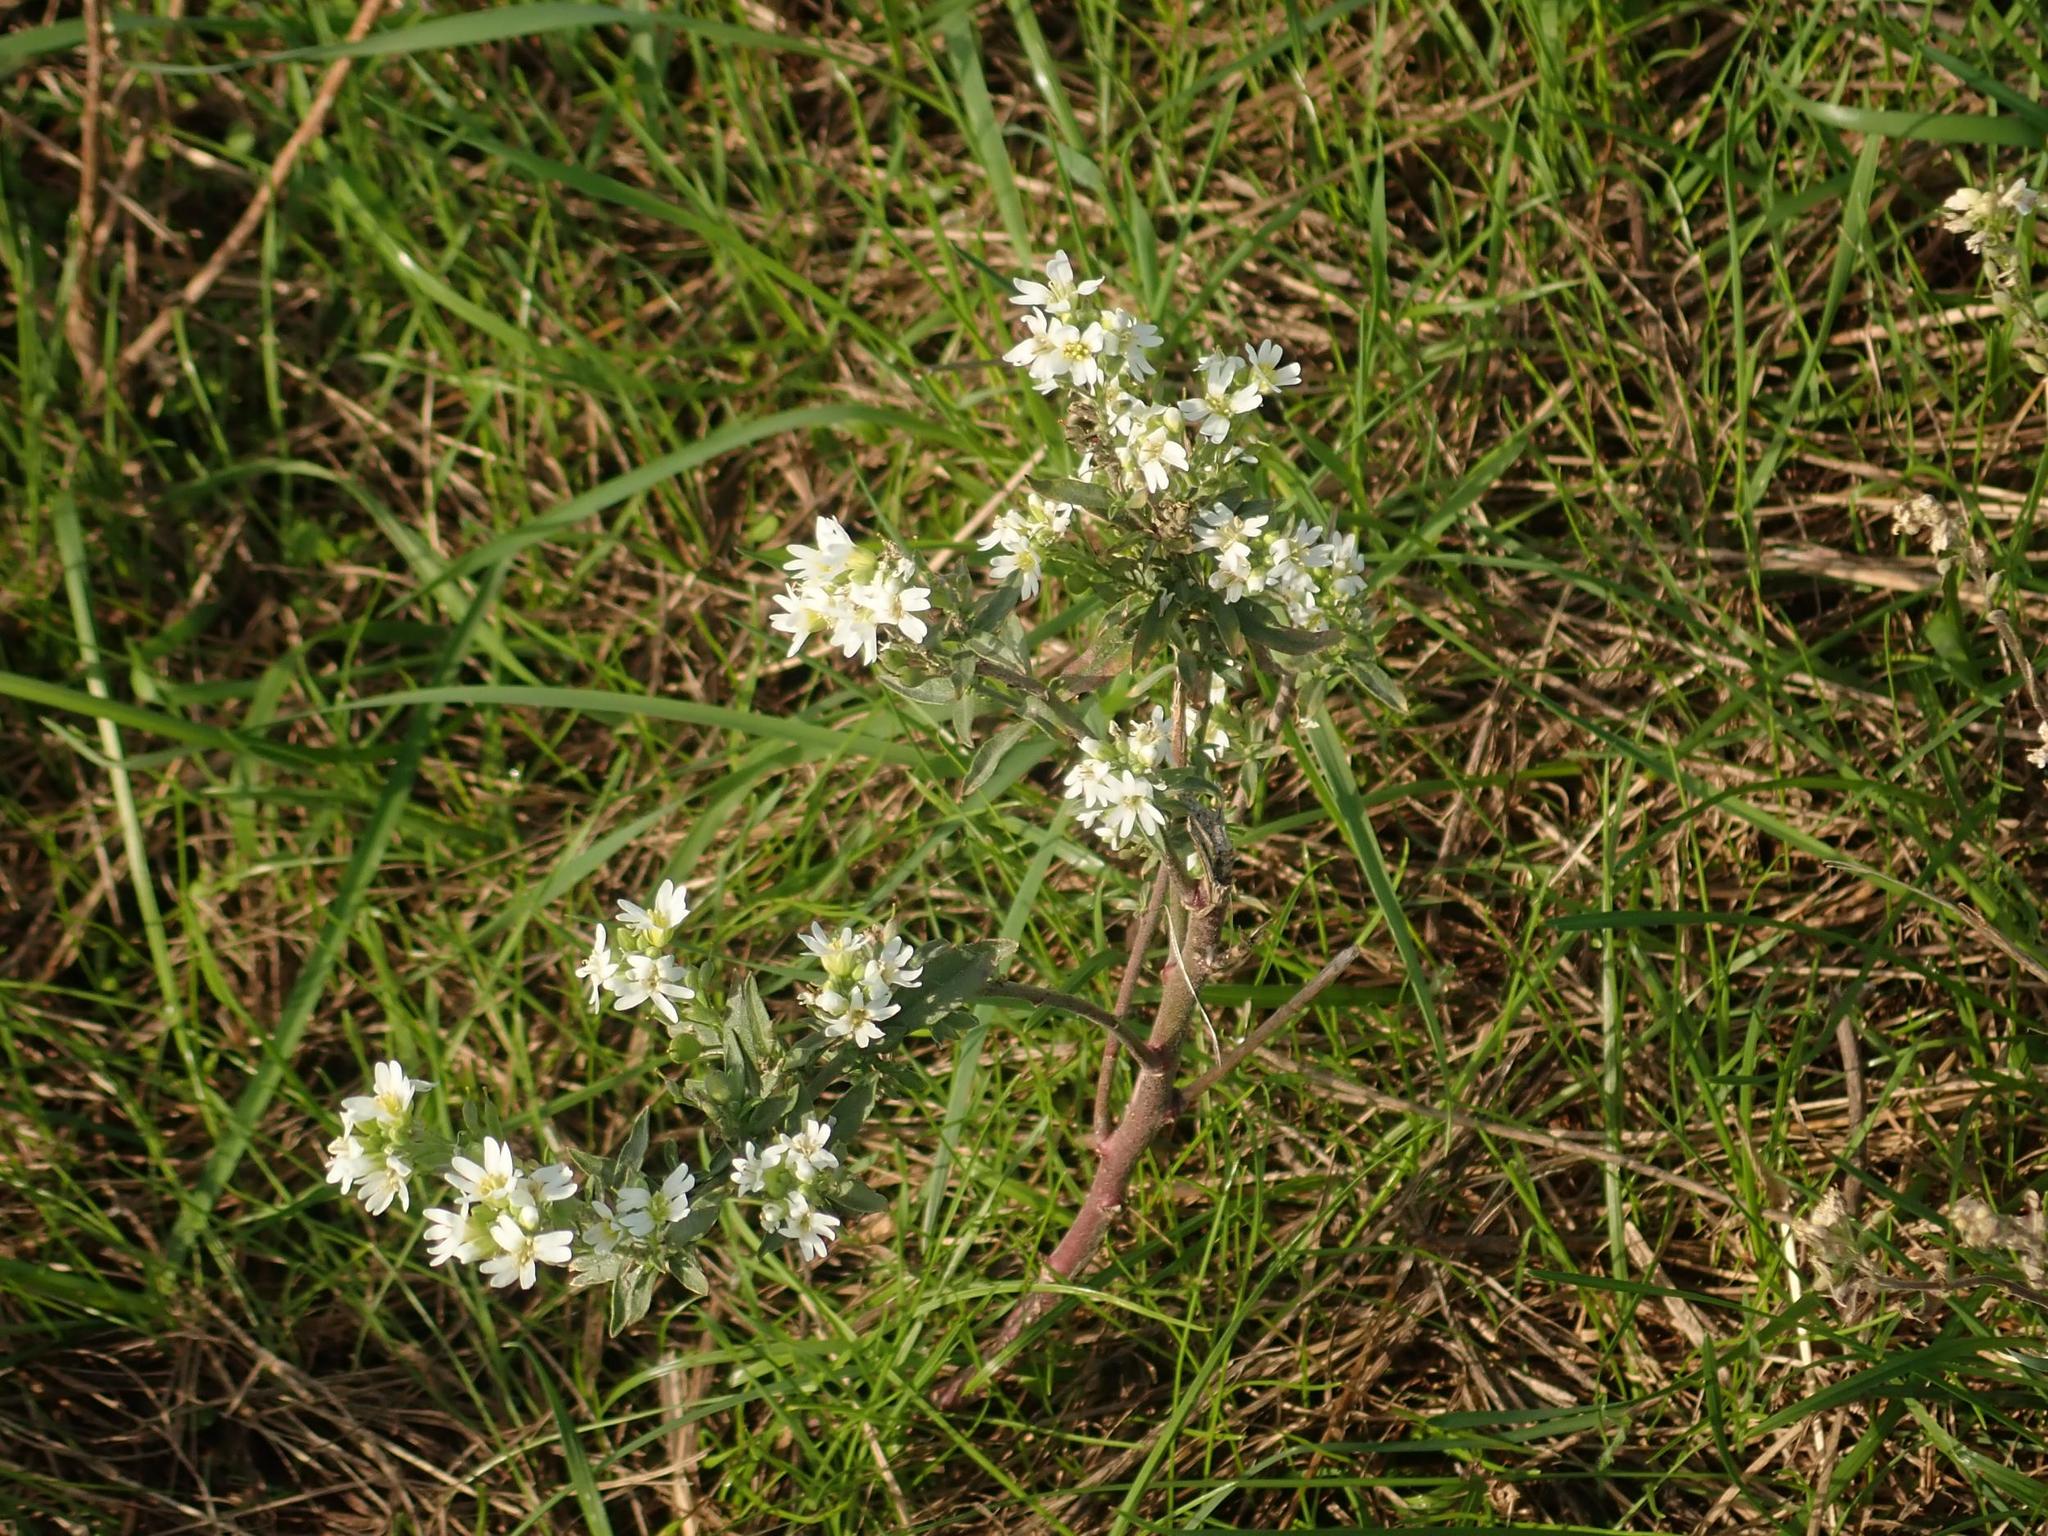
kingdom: Plantae
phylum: Tracheophyta
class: Magnoliopsida
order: Brassicales
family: Brassicaceae
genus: Berteroa
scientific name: Berteroa incana
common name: Hoary alison
